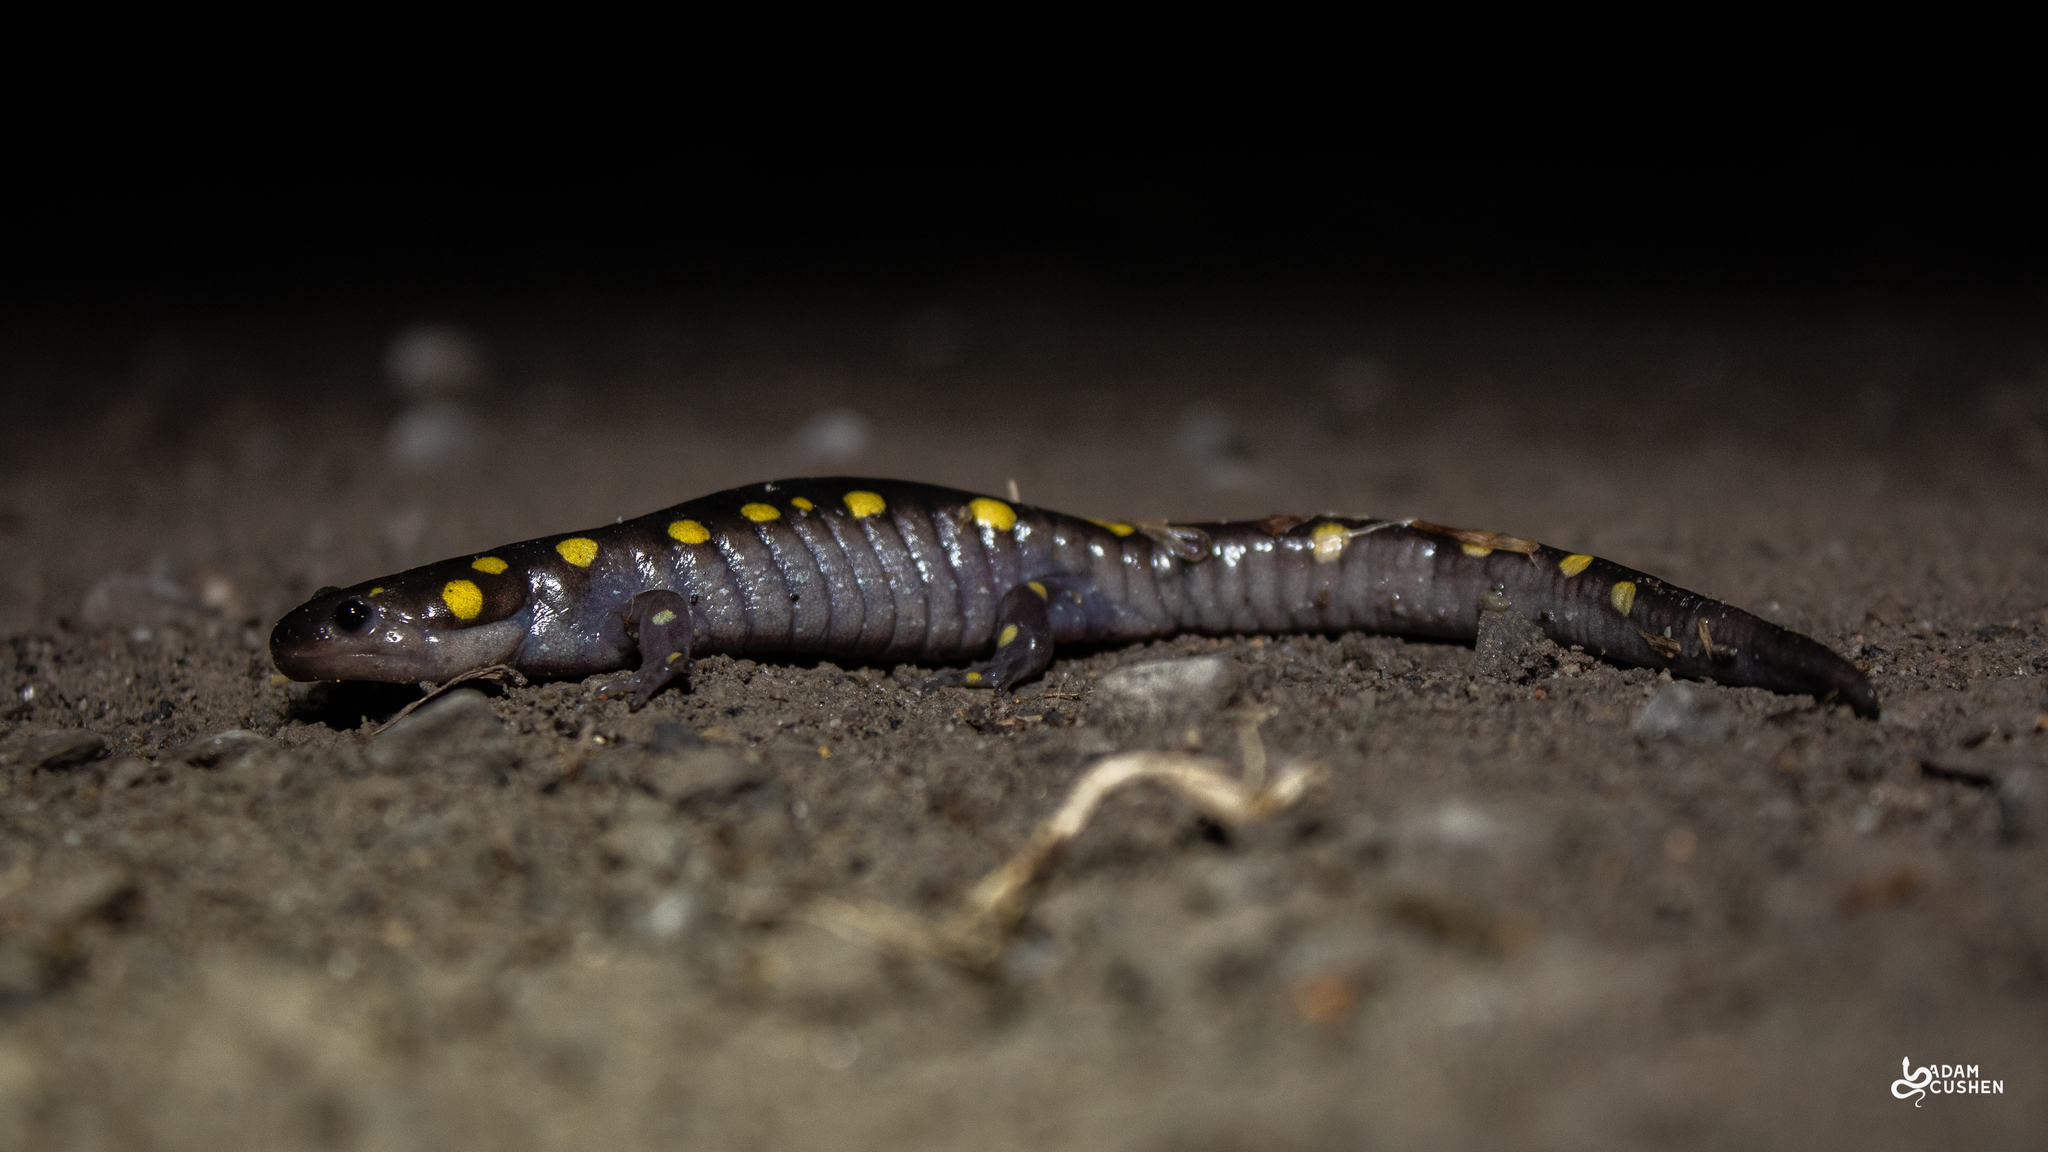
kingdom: Animalia
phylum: Chordata
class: Amphibia
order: Caudata
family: Ambystomatidae
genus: Ambystoma
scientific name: Ambystoma maculatum
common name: Spotted salamander
